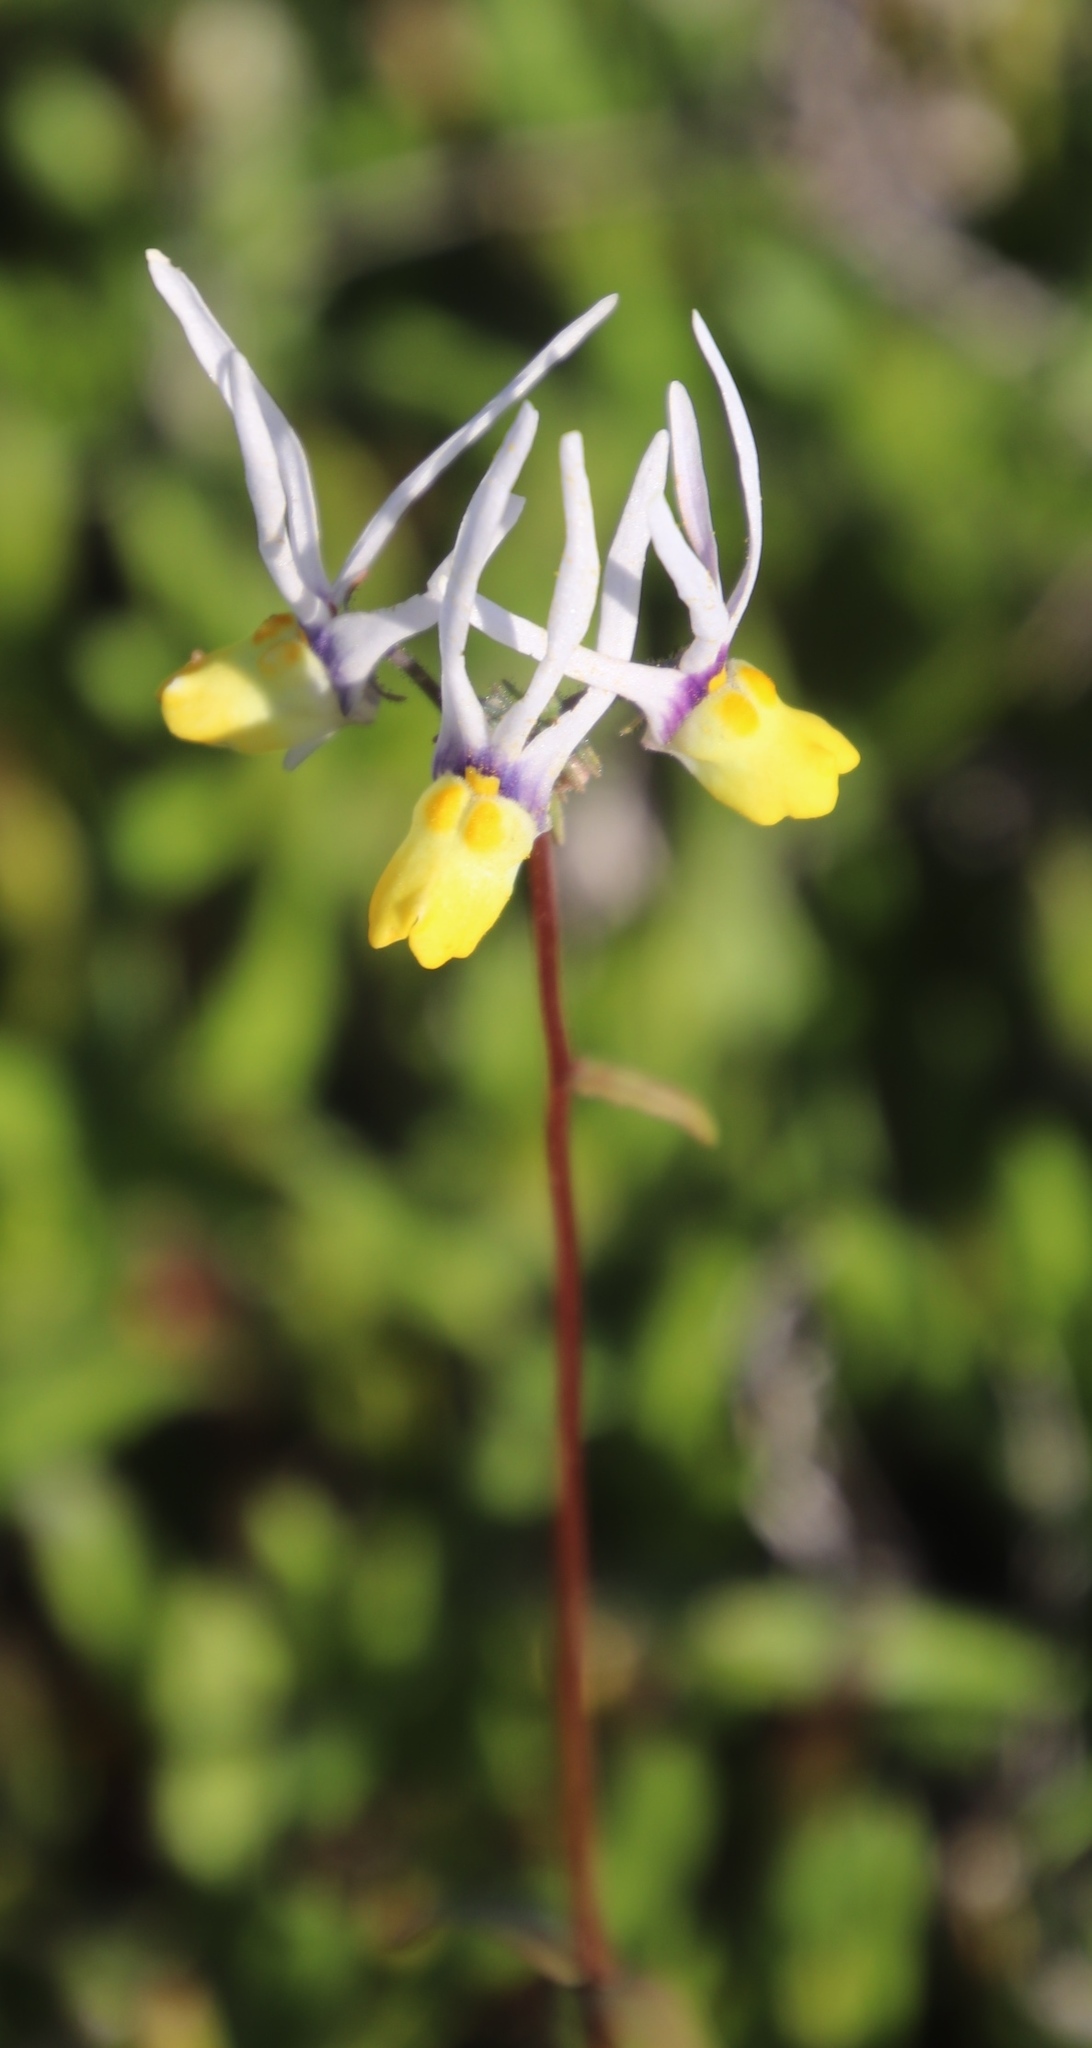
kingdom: Plantae
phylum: Tracheophyta
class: Magnoliopsida
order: Lamiales
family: Scrophulariaceae
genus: Nemesia
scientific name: Nemesia cheiranthus
